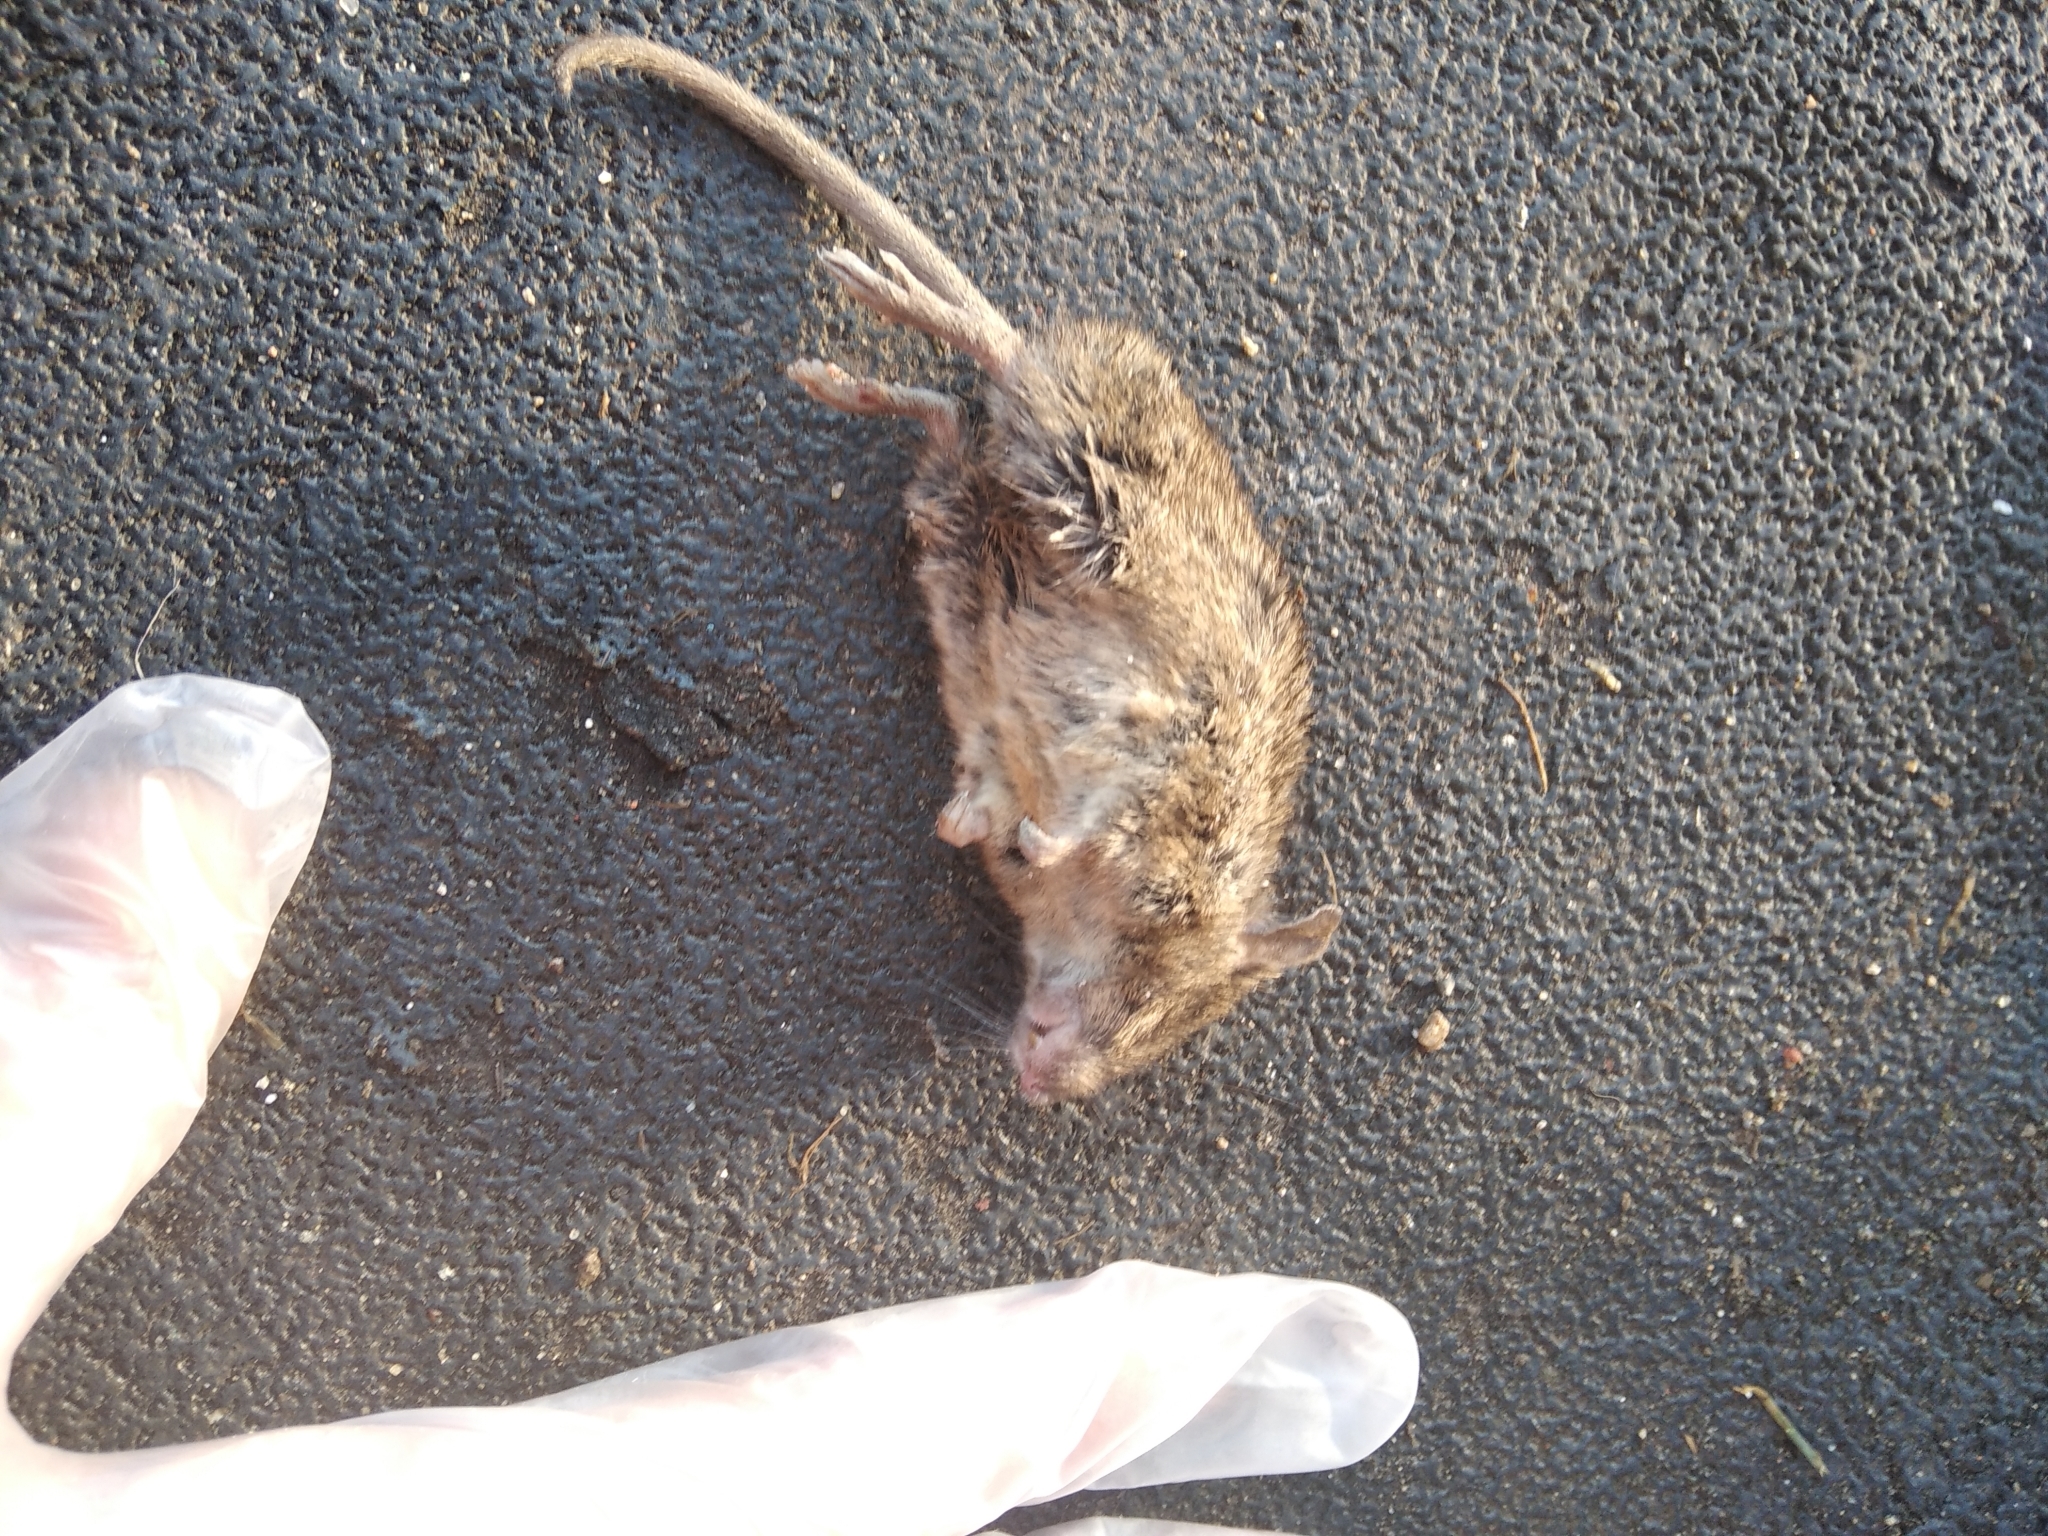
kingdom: Animalia
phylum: Chordata
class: Mammalia
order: Rodentia
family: Muridae
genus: Mus
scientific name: Mus musculus
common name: House mouse
